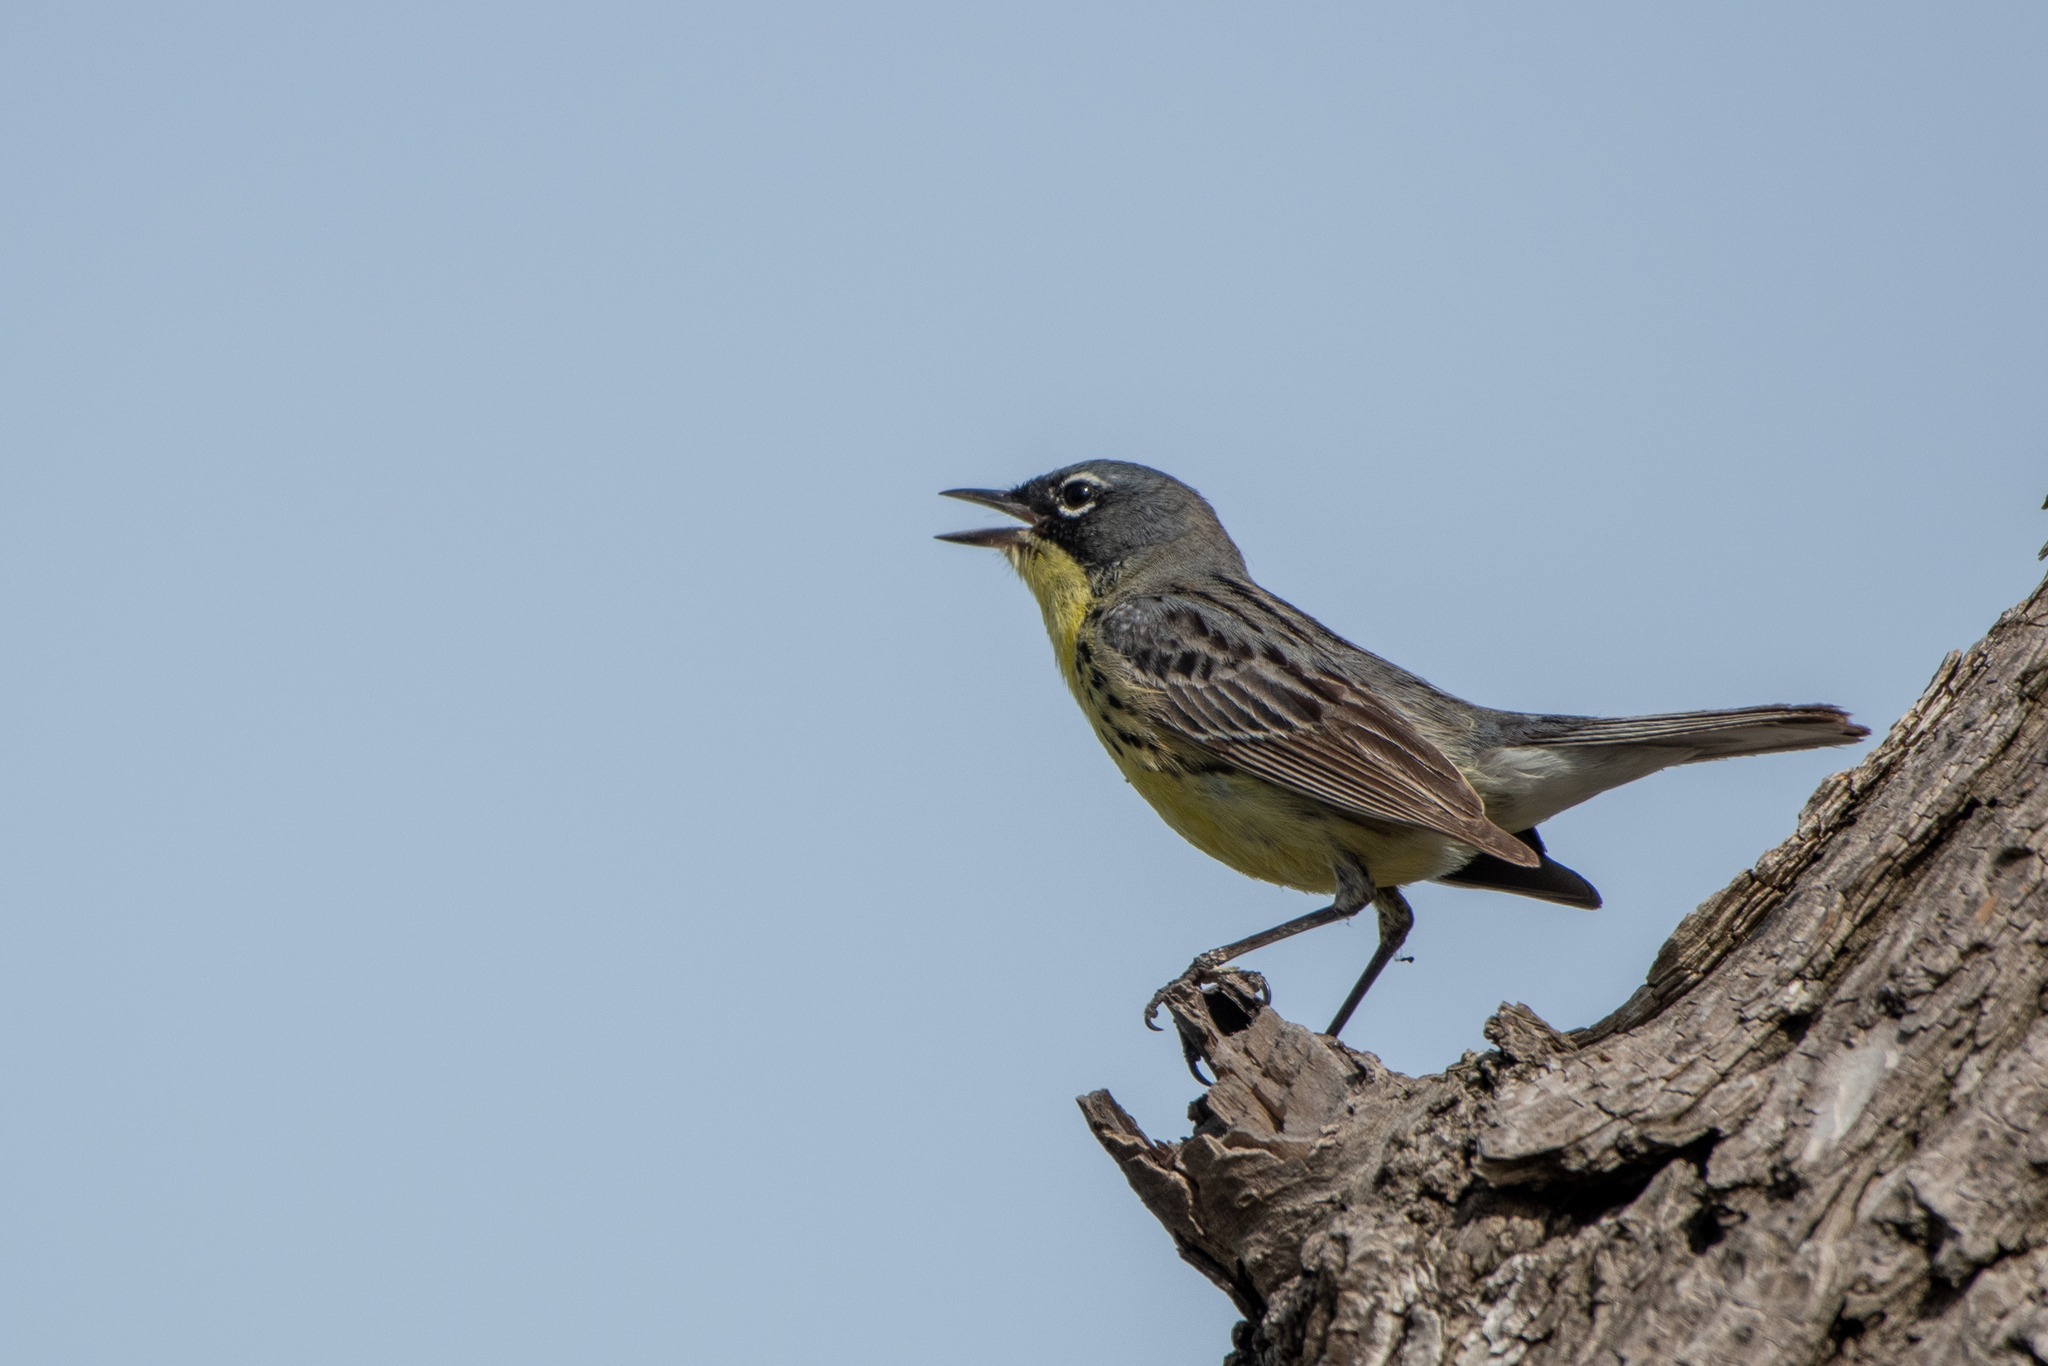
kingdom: Animalia
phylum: Chordata
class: Aves
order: Passeriformes
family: Parulidae
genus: Setophaga
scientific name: Setophaga kirtlandii
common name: Kirtland's warbler
